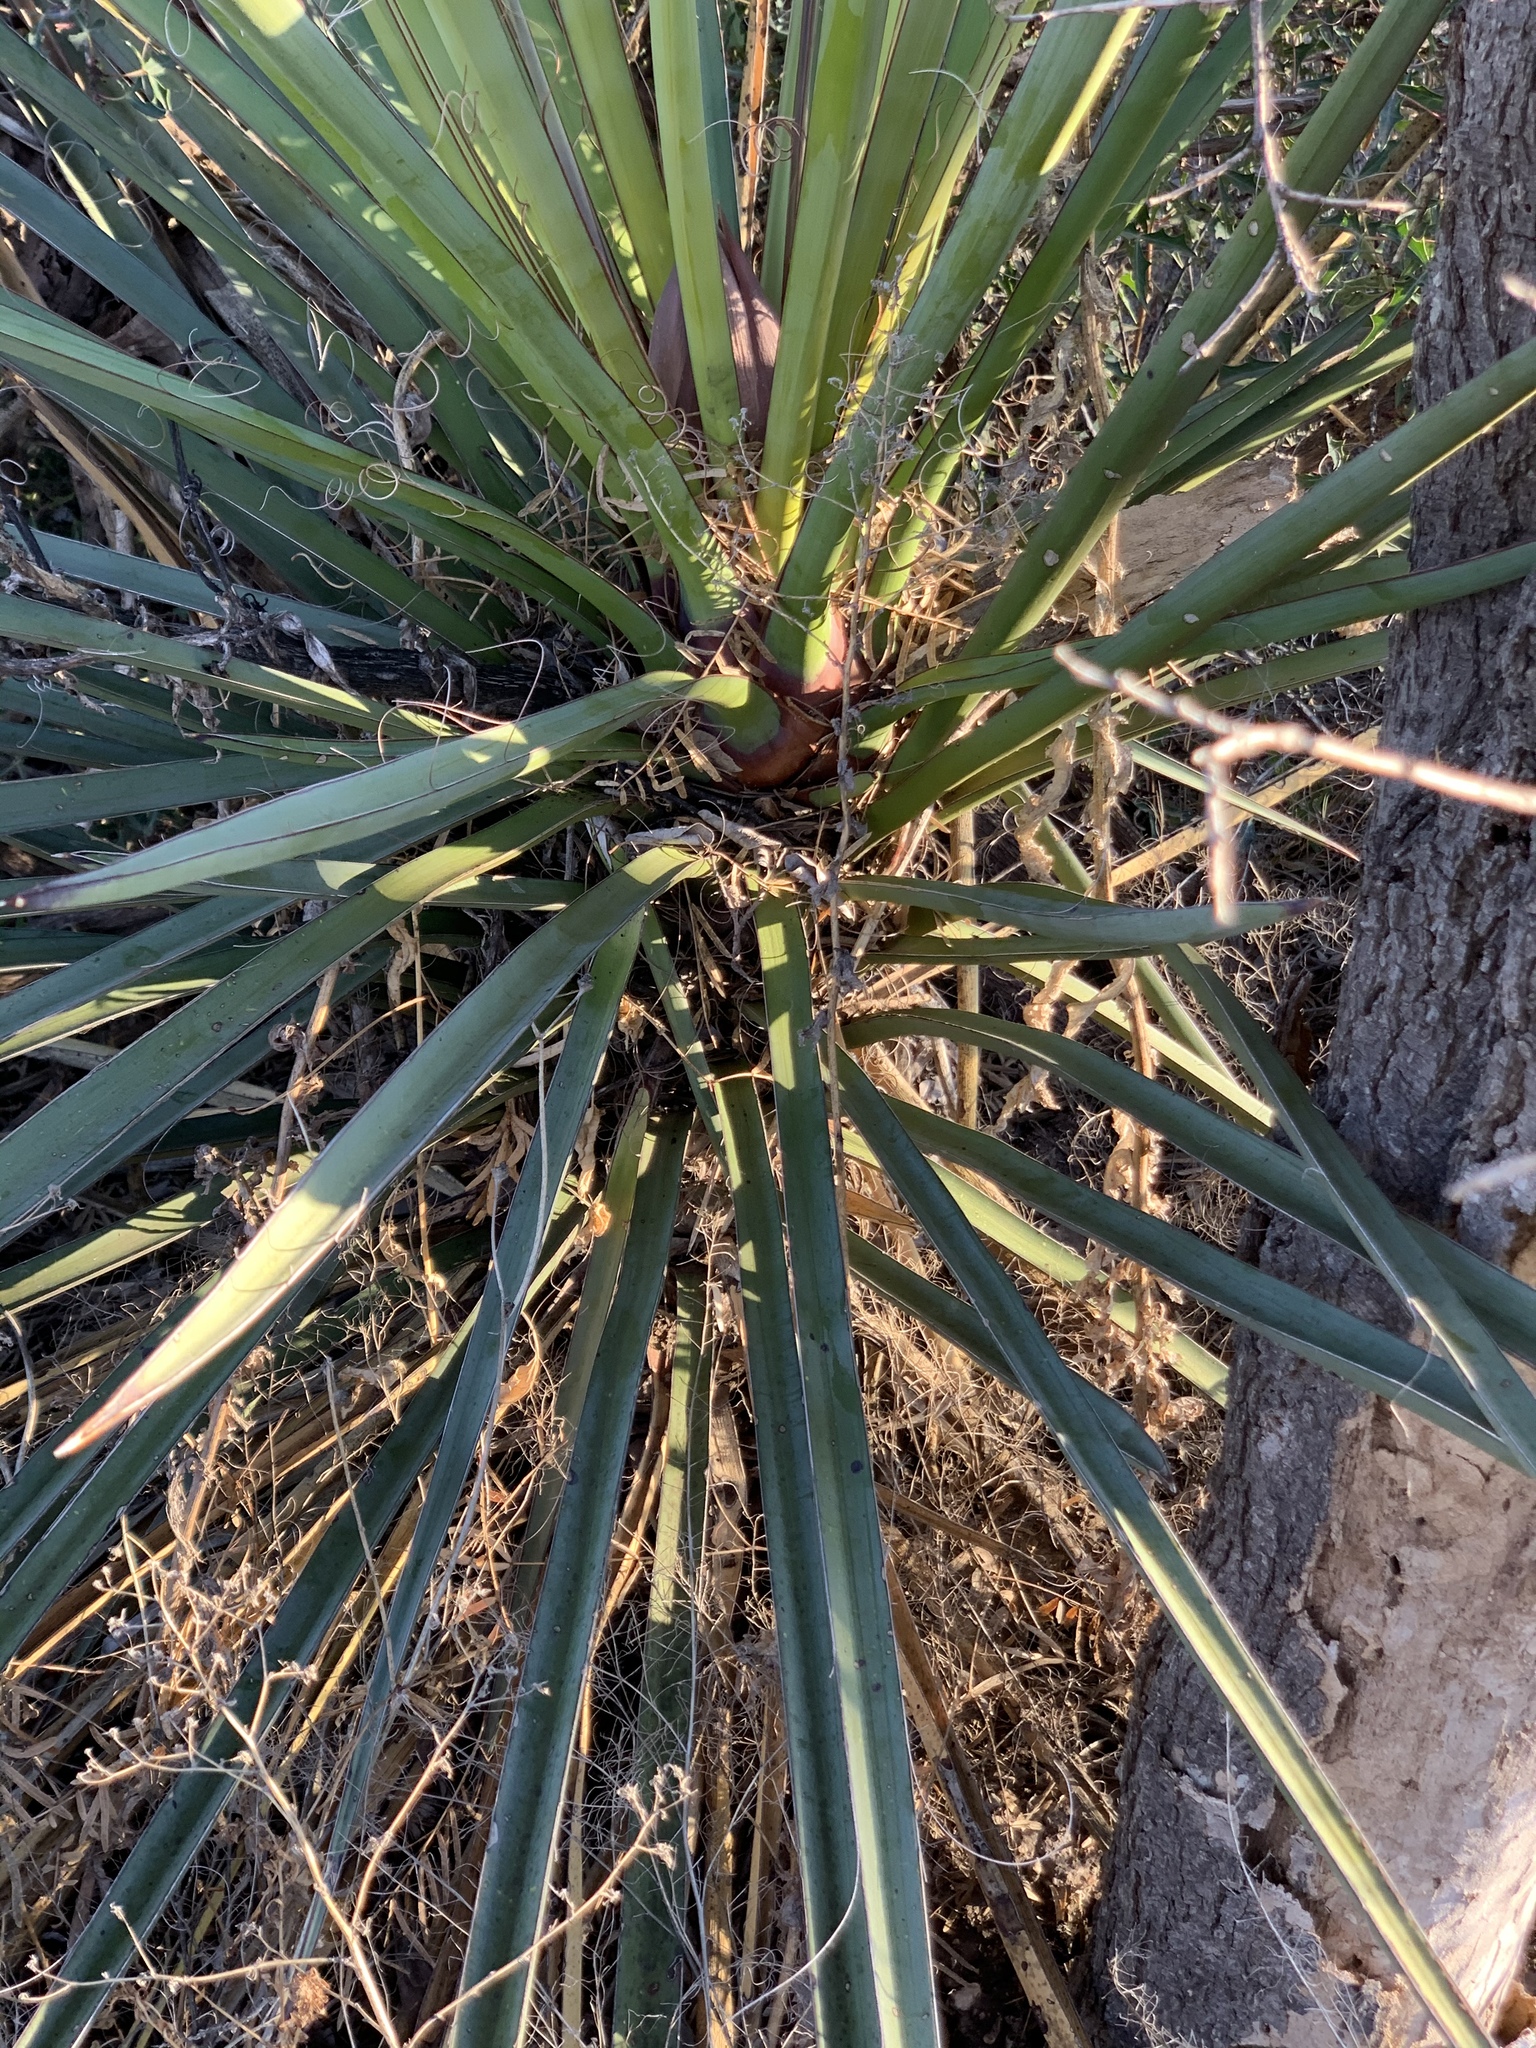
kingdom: Plantae
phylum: Tracheophyta
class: Liliopsida
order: Asparagales
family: Asparagaceae
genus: Yucca
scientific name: Yucca treculiana
